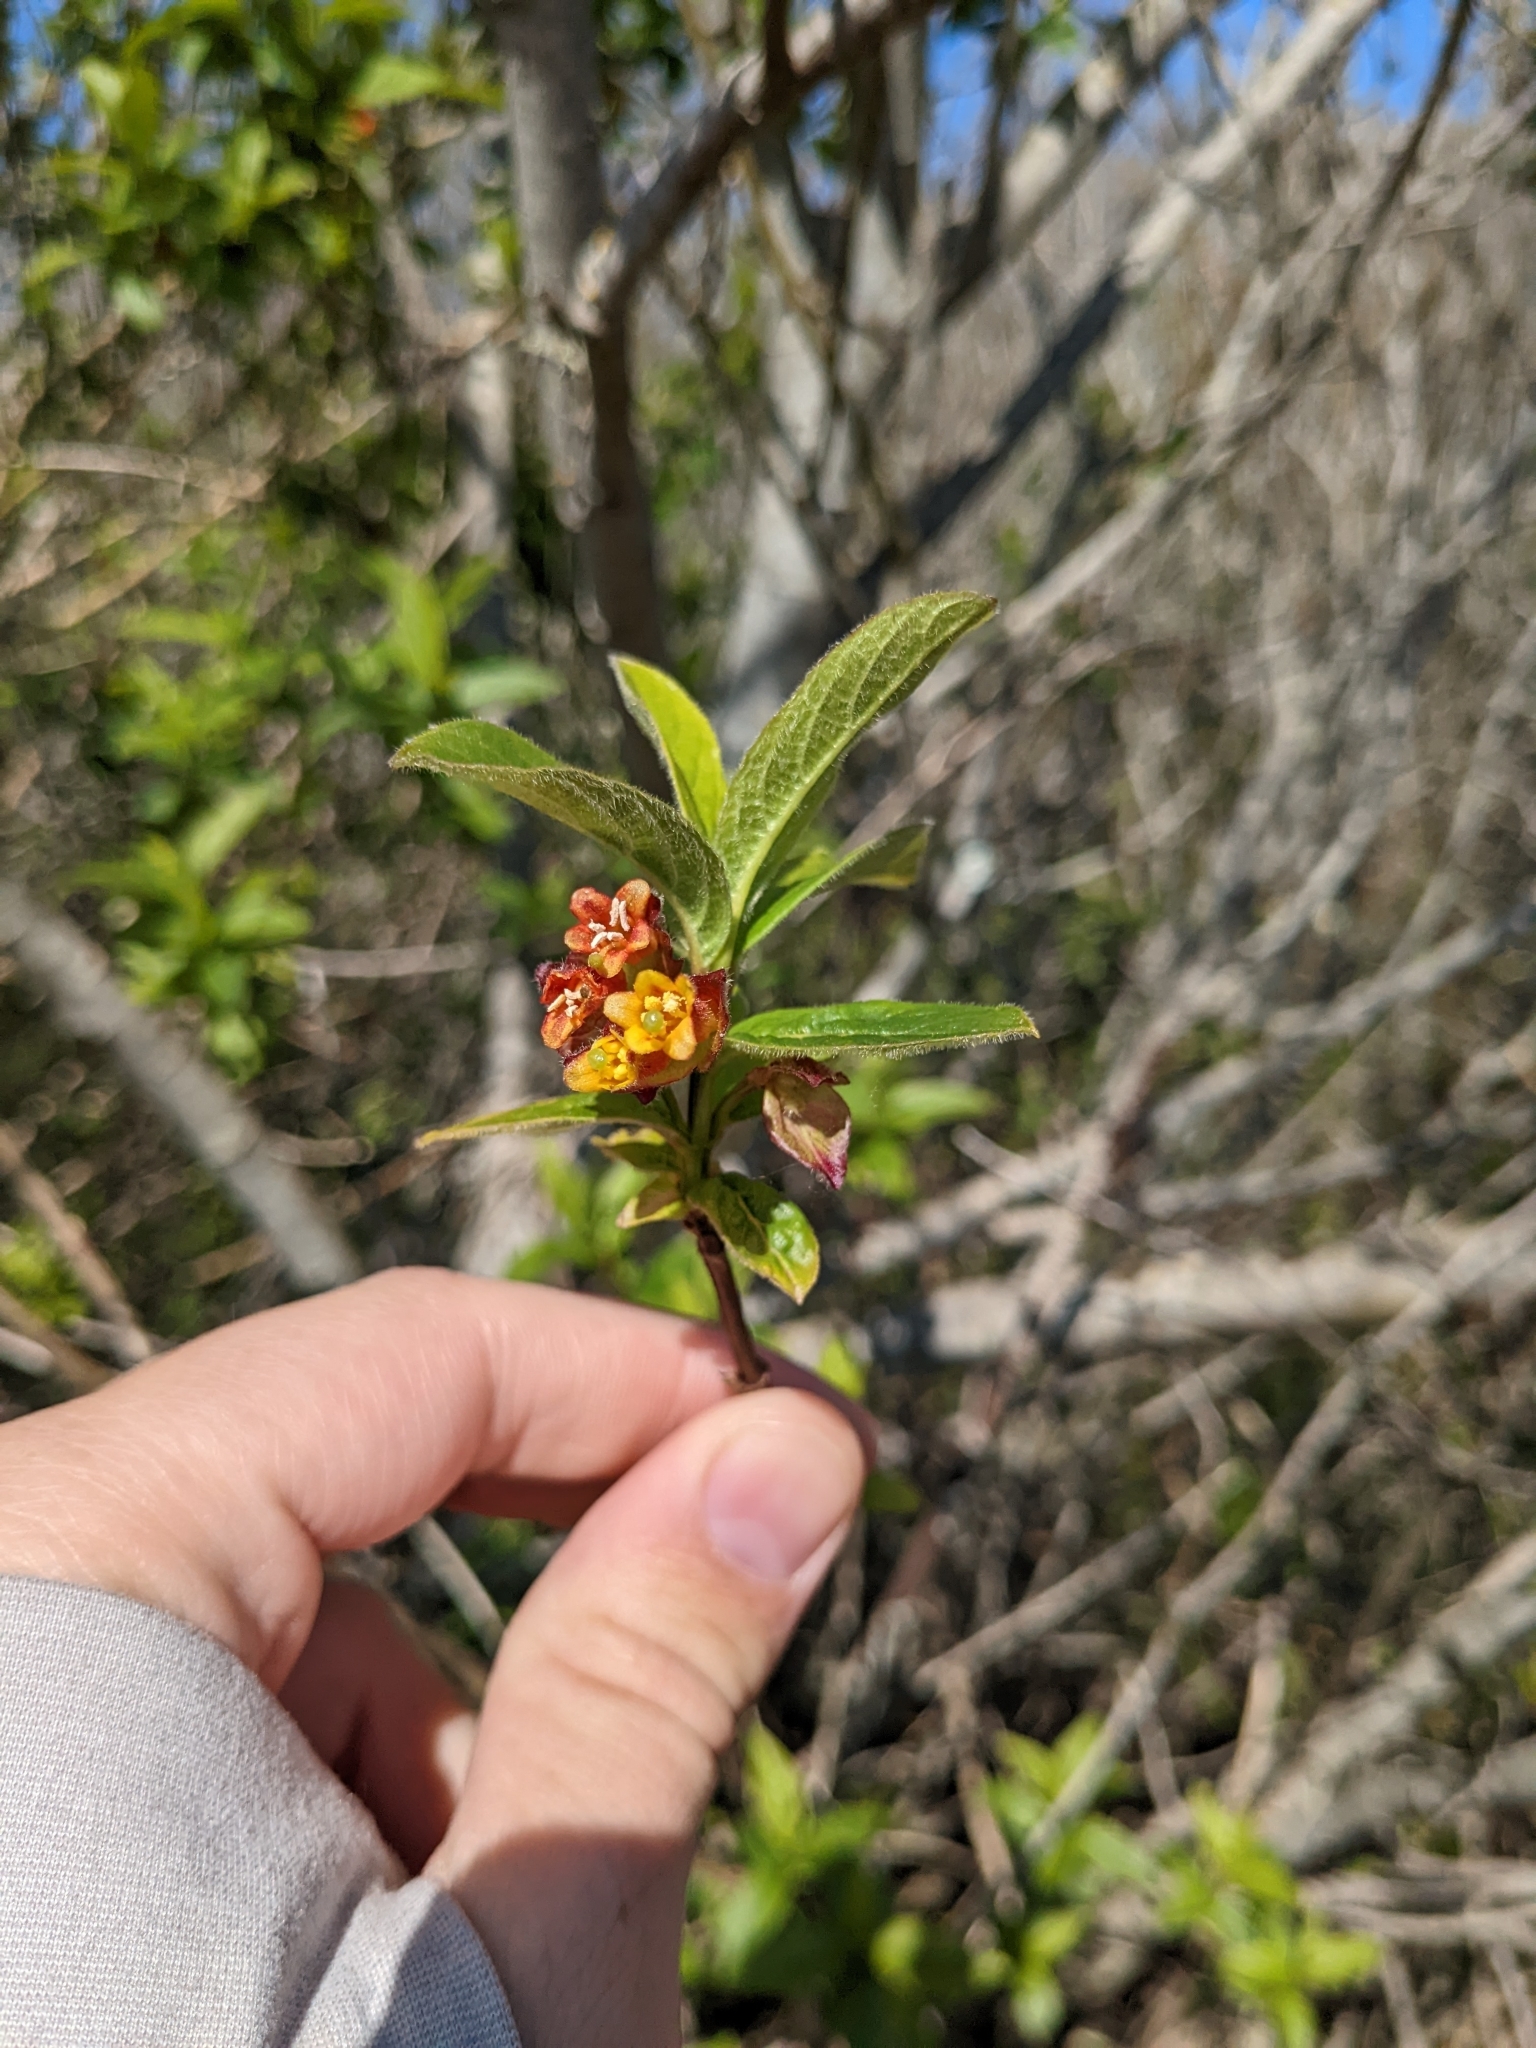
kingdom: Plantae
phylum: Tracheophyta
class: Magnoliopsida
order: Dipsacales
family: Caprifoliaceae
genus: Lonicera
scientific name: Lonicera involucrata
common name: Californian honeysuckle
